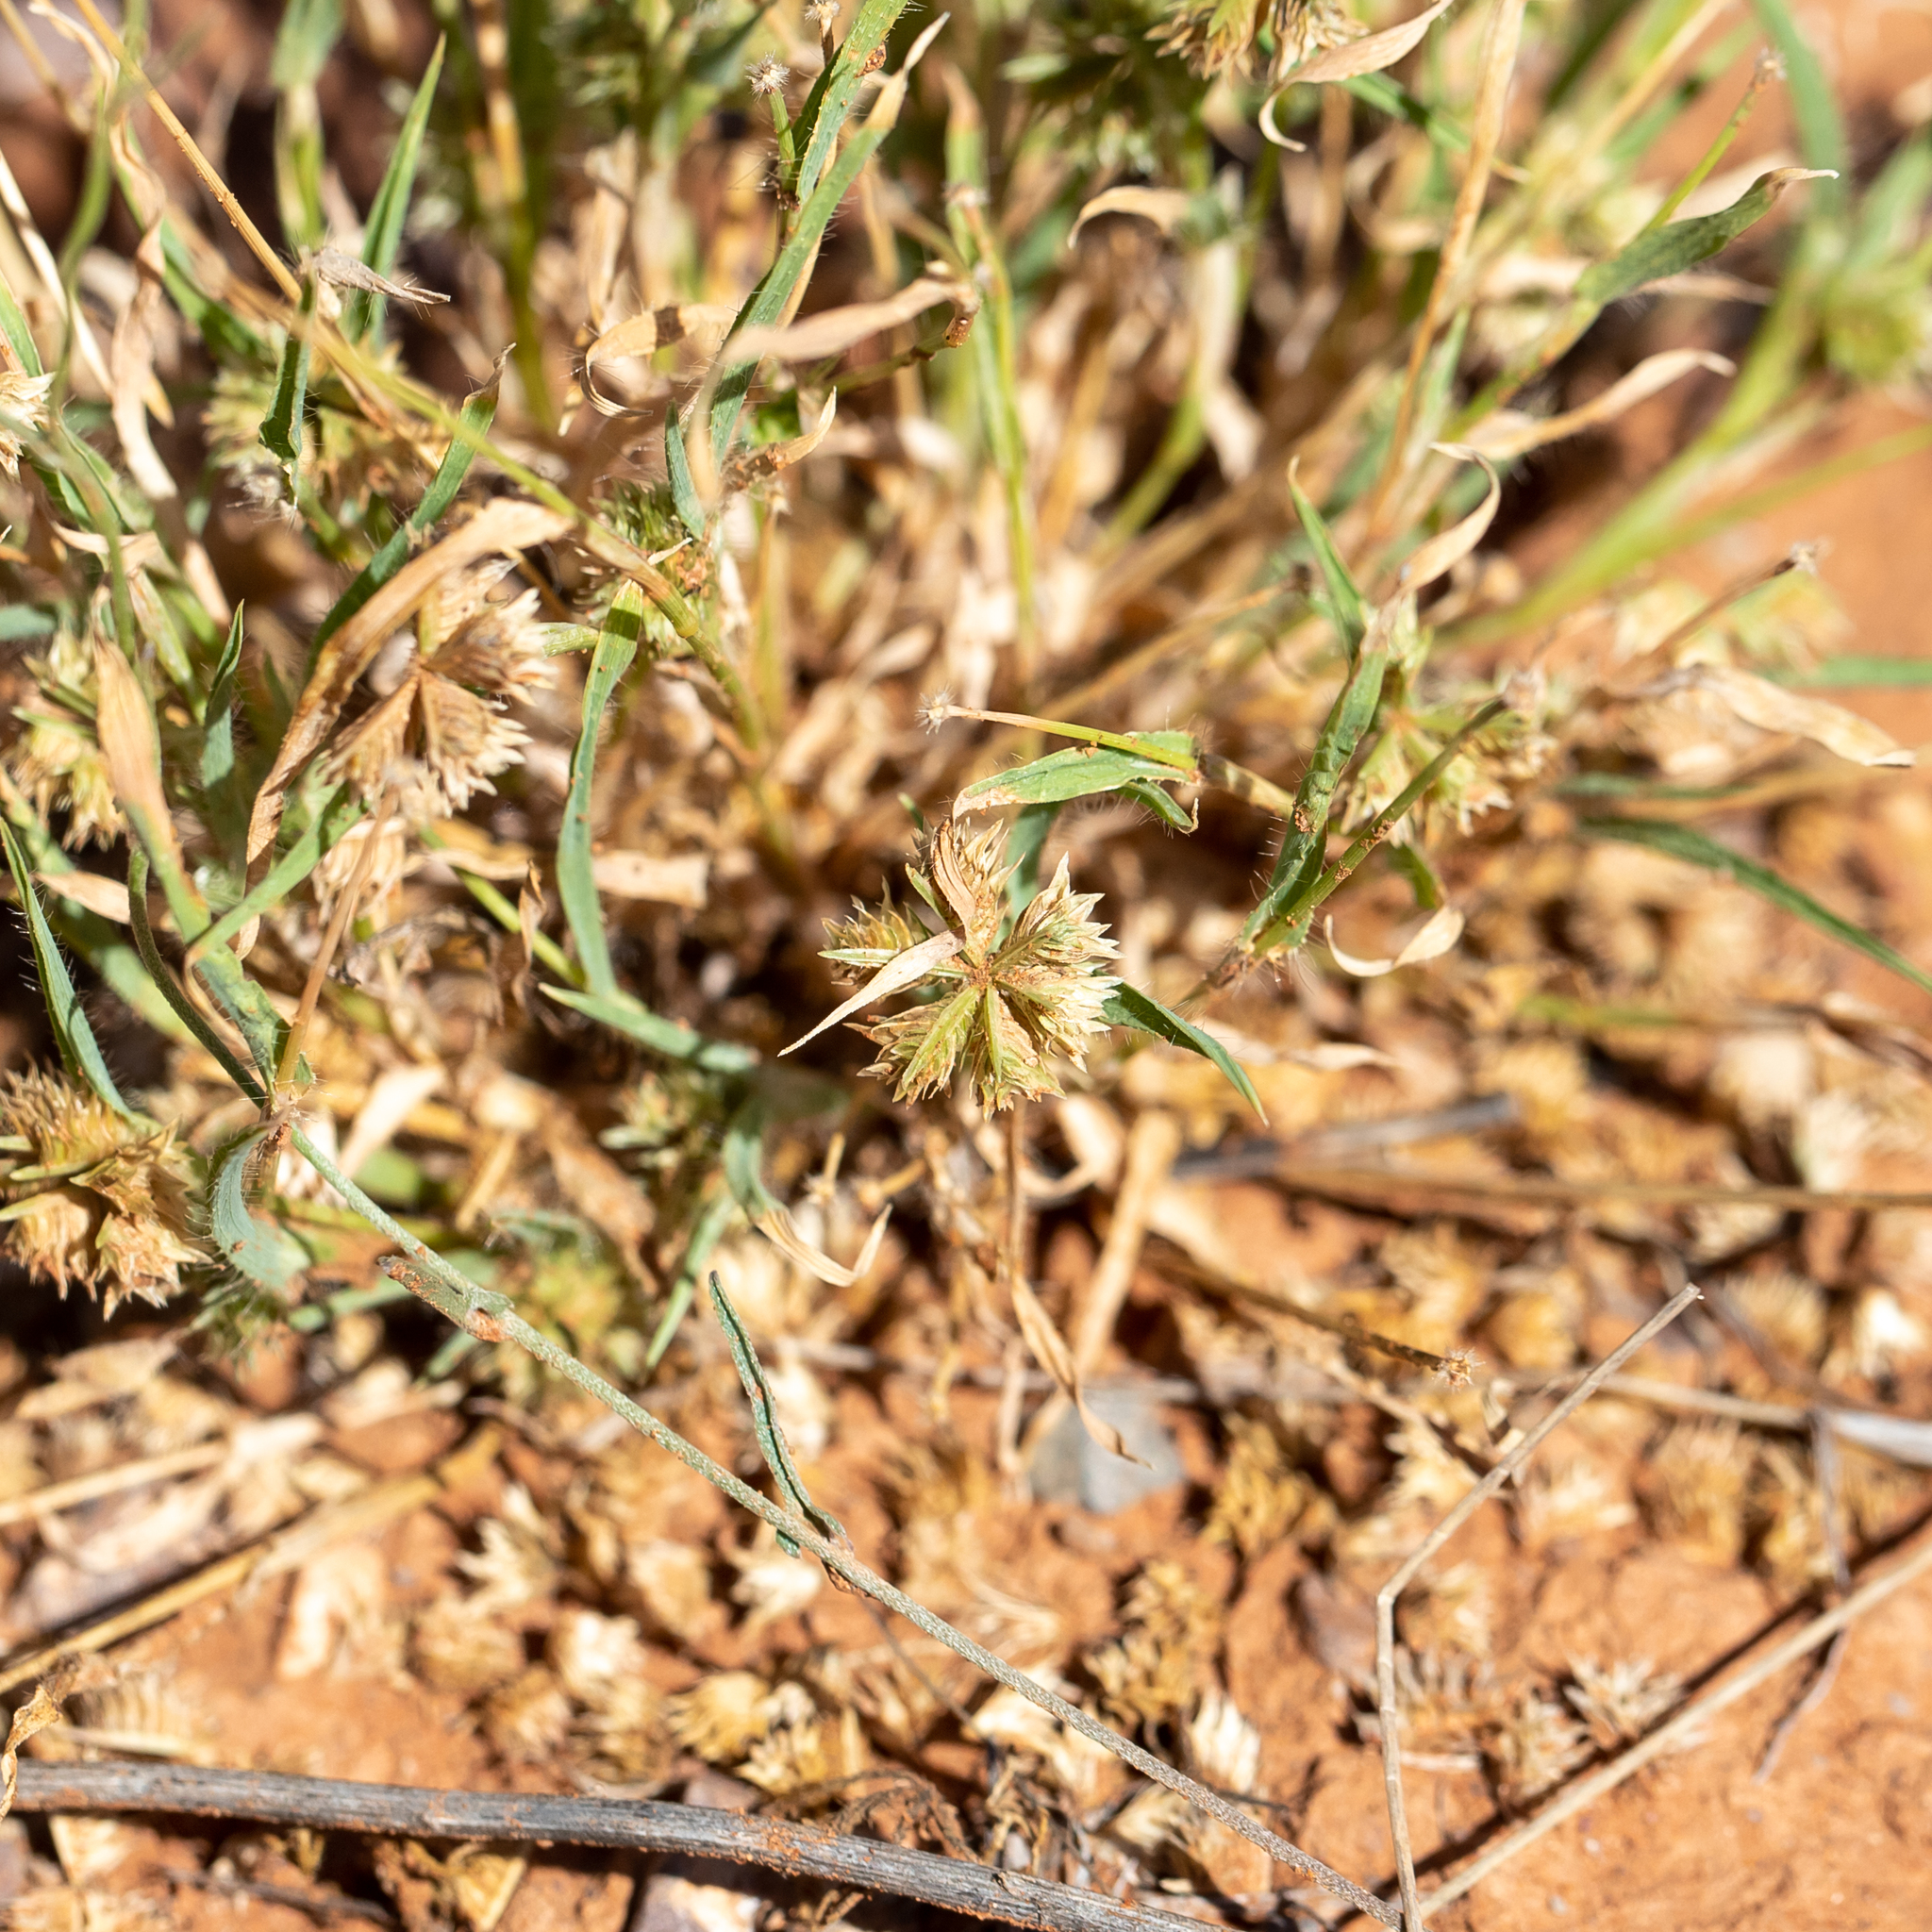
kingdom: Plantae
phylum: Tracheophyta
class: Liliopsida
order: Poales
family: Poaceae
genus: Dactyloctenium
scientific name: Dactyloctenium radulans
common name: Button-grass
